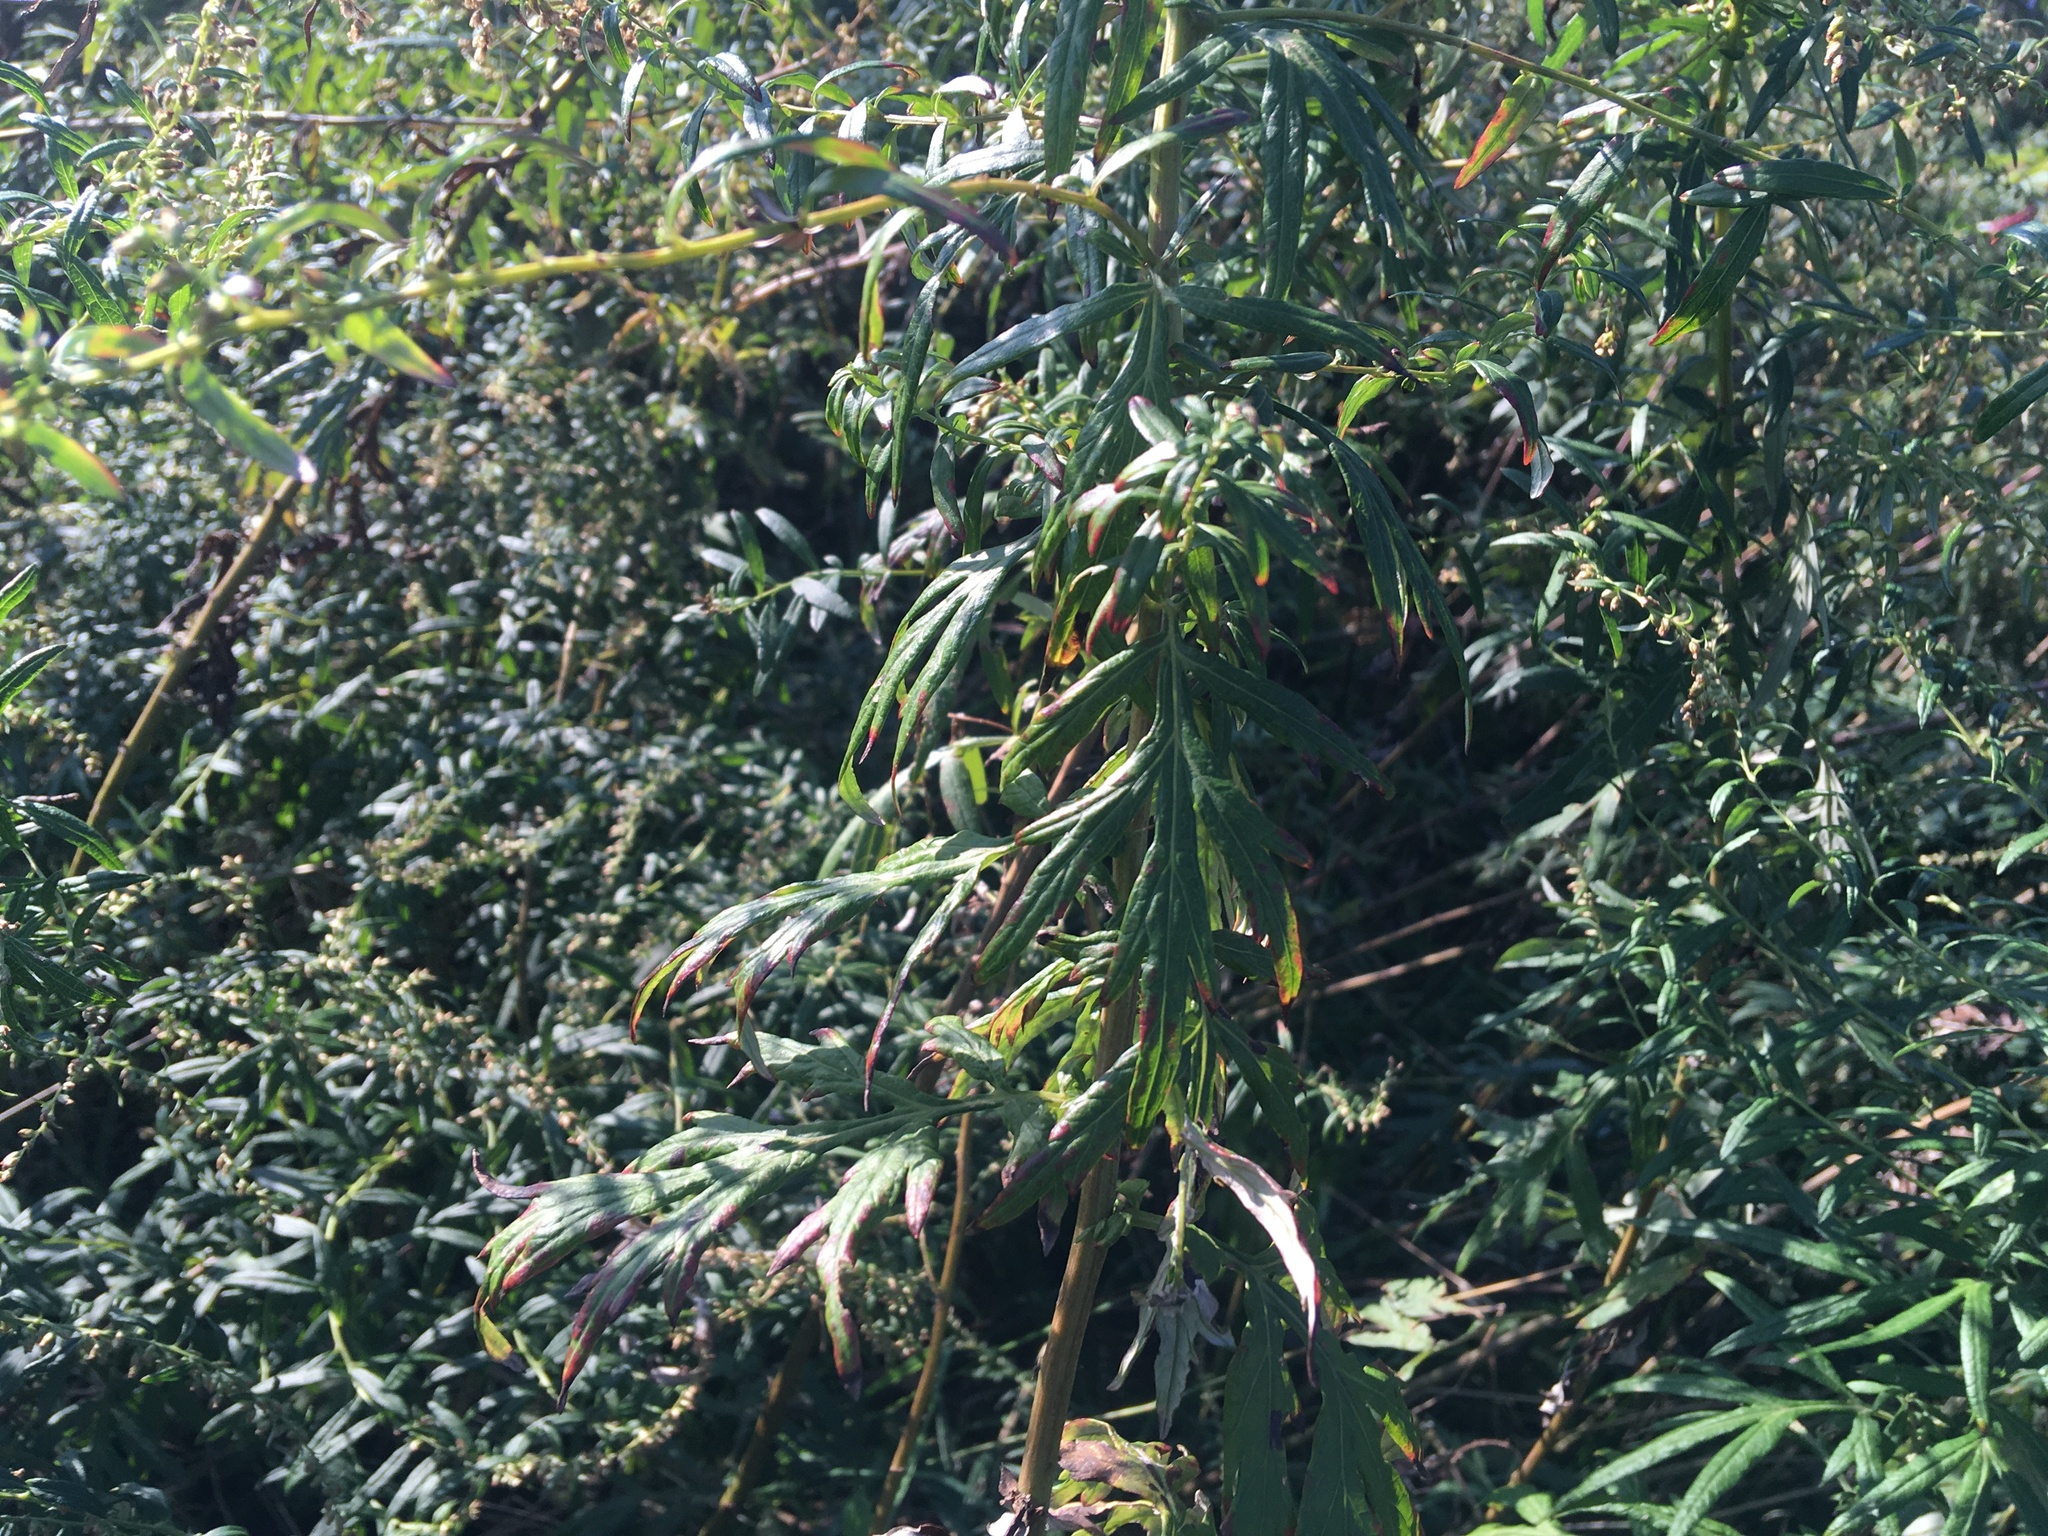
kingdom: Plantae
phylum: Tracheophyta
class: Magnoliopsida
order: Asterales
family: Asteraceae
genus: Artemisia
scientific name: Artemisia vulgaris
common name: Mugwort
